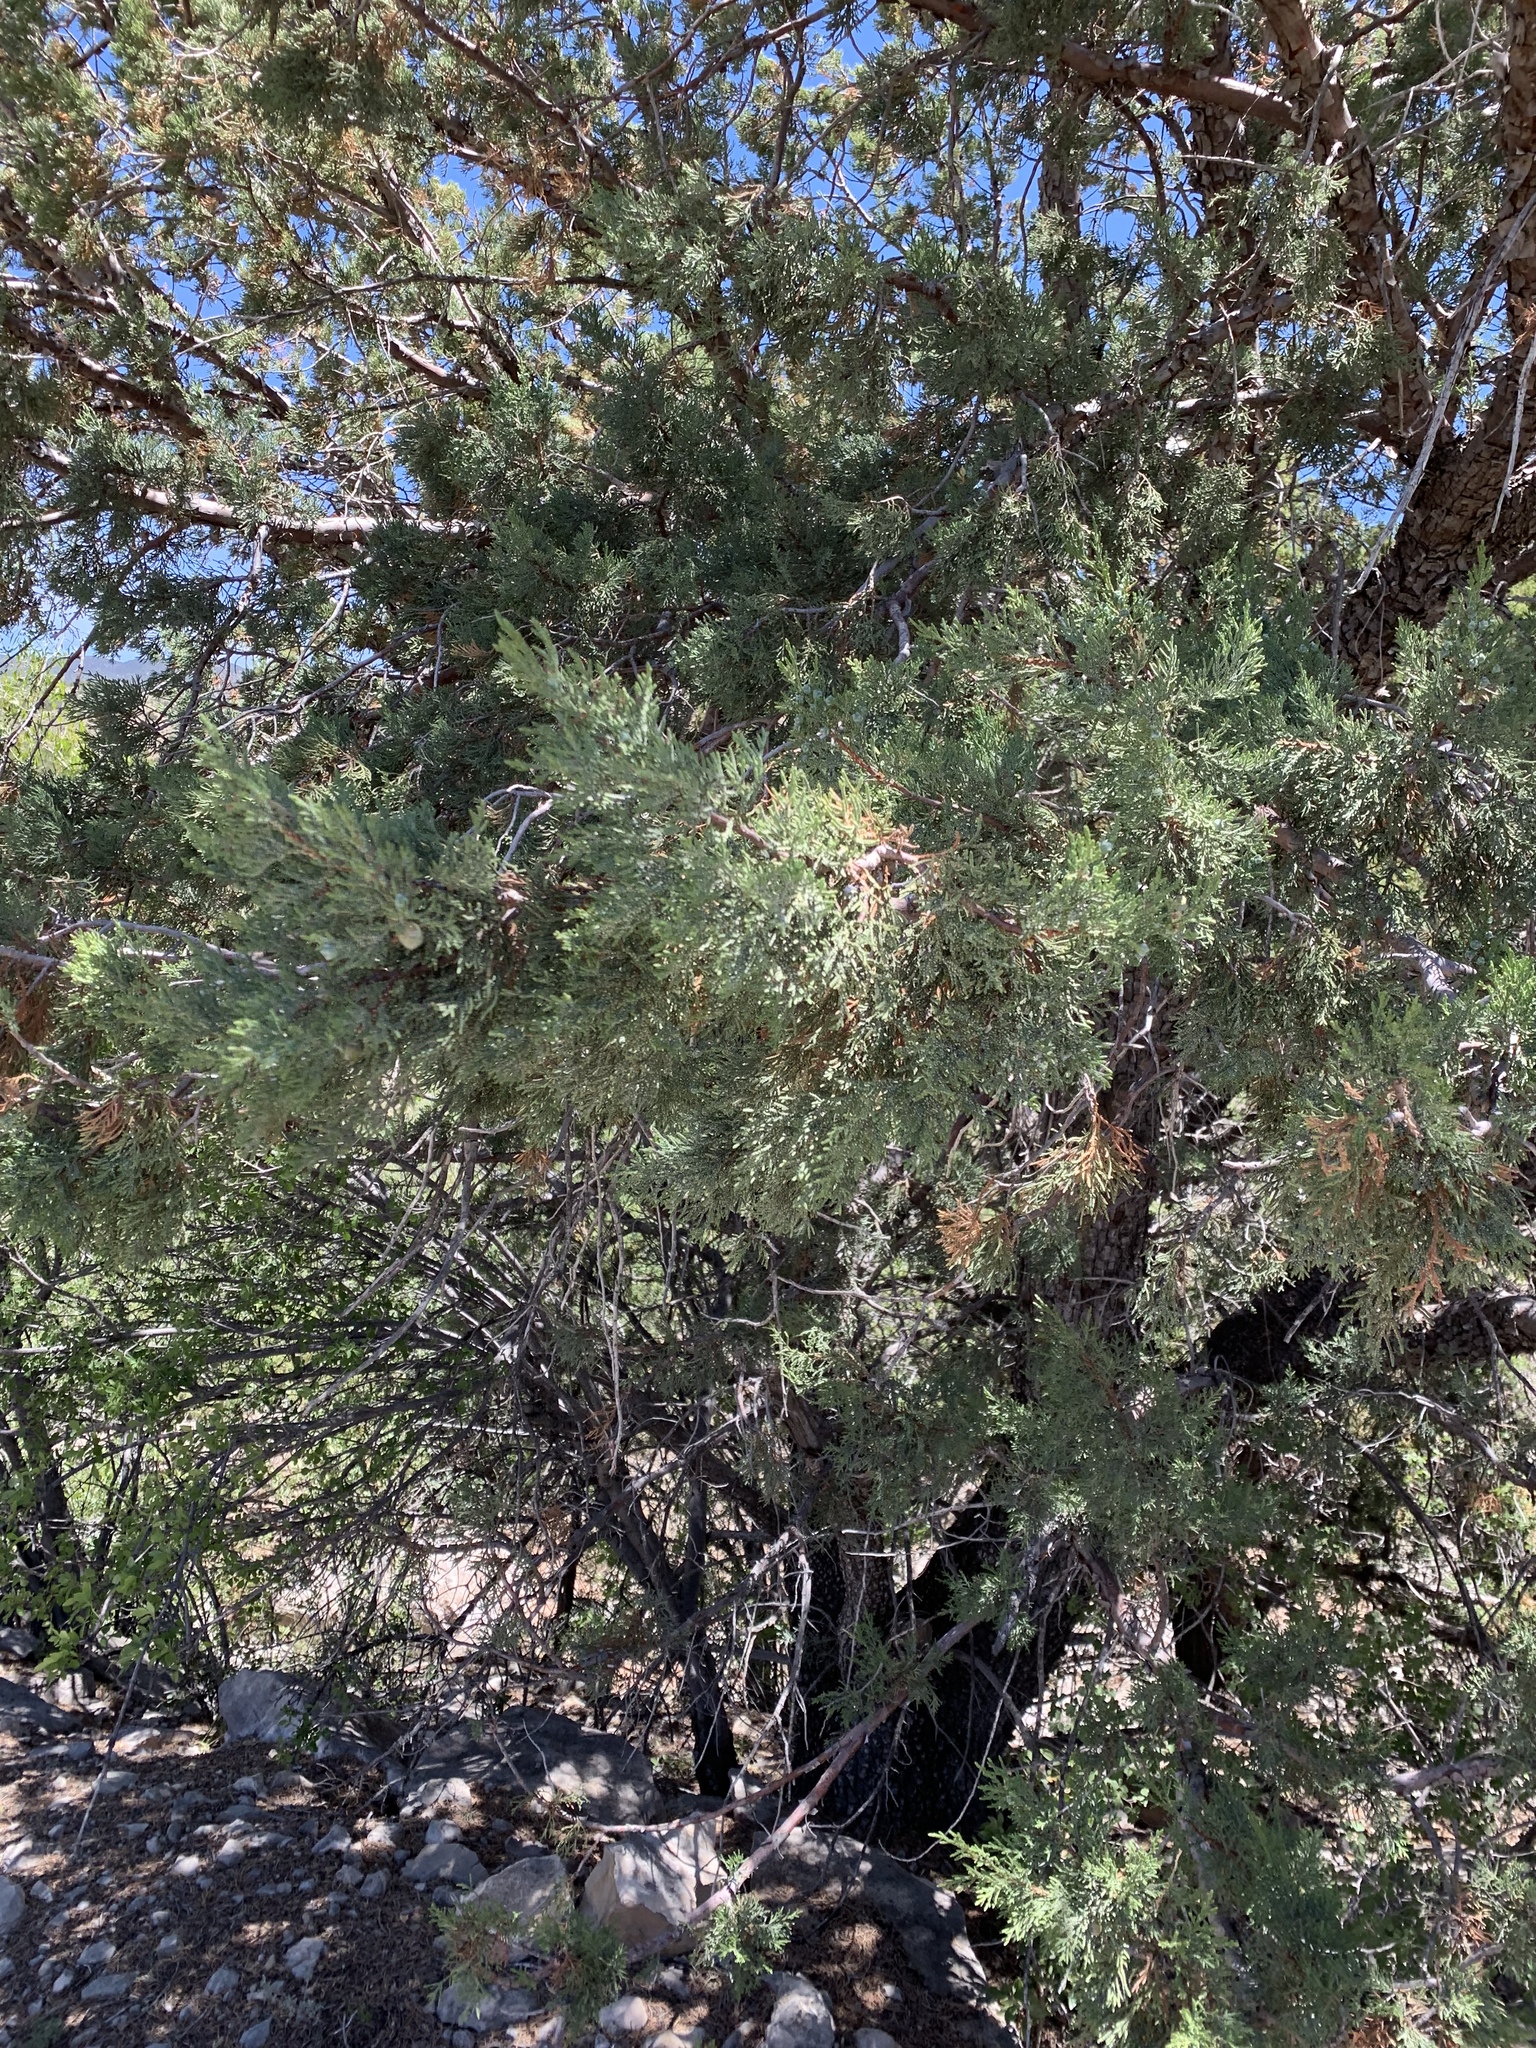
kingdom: Plantae
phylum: Tracheophyta
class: Pinopsida
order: Pinales
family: Cupressaceae
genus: Juniperus
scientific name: Juniperus deppeana
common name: Alligator juniper
